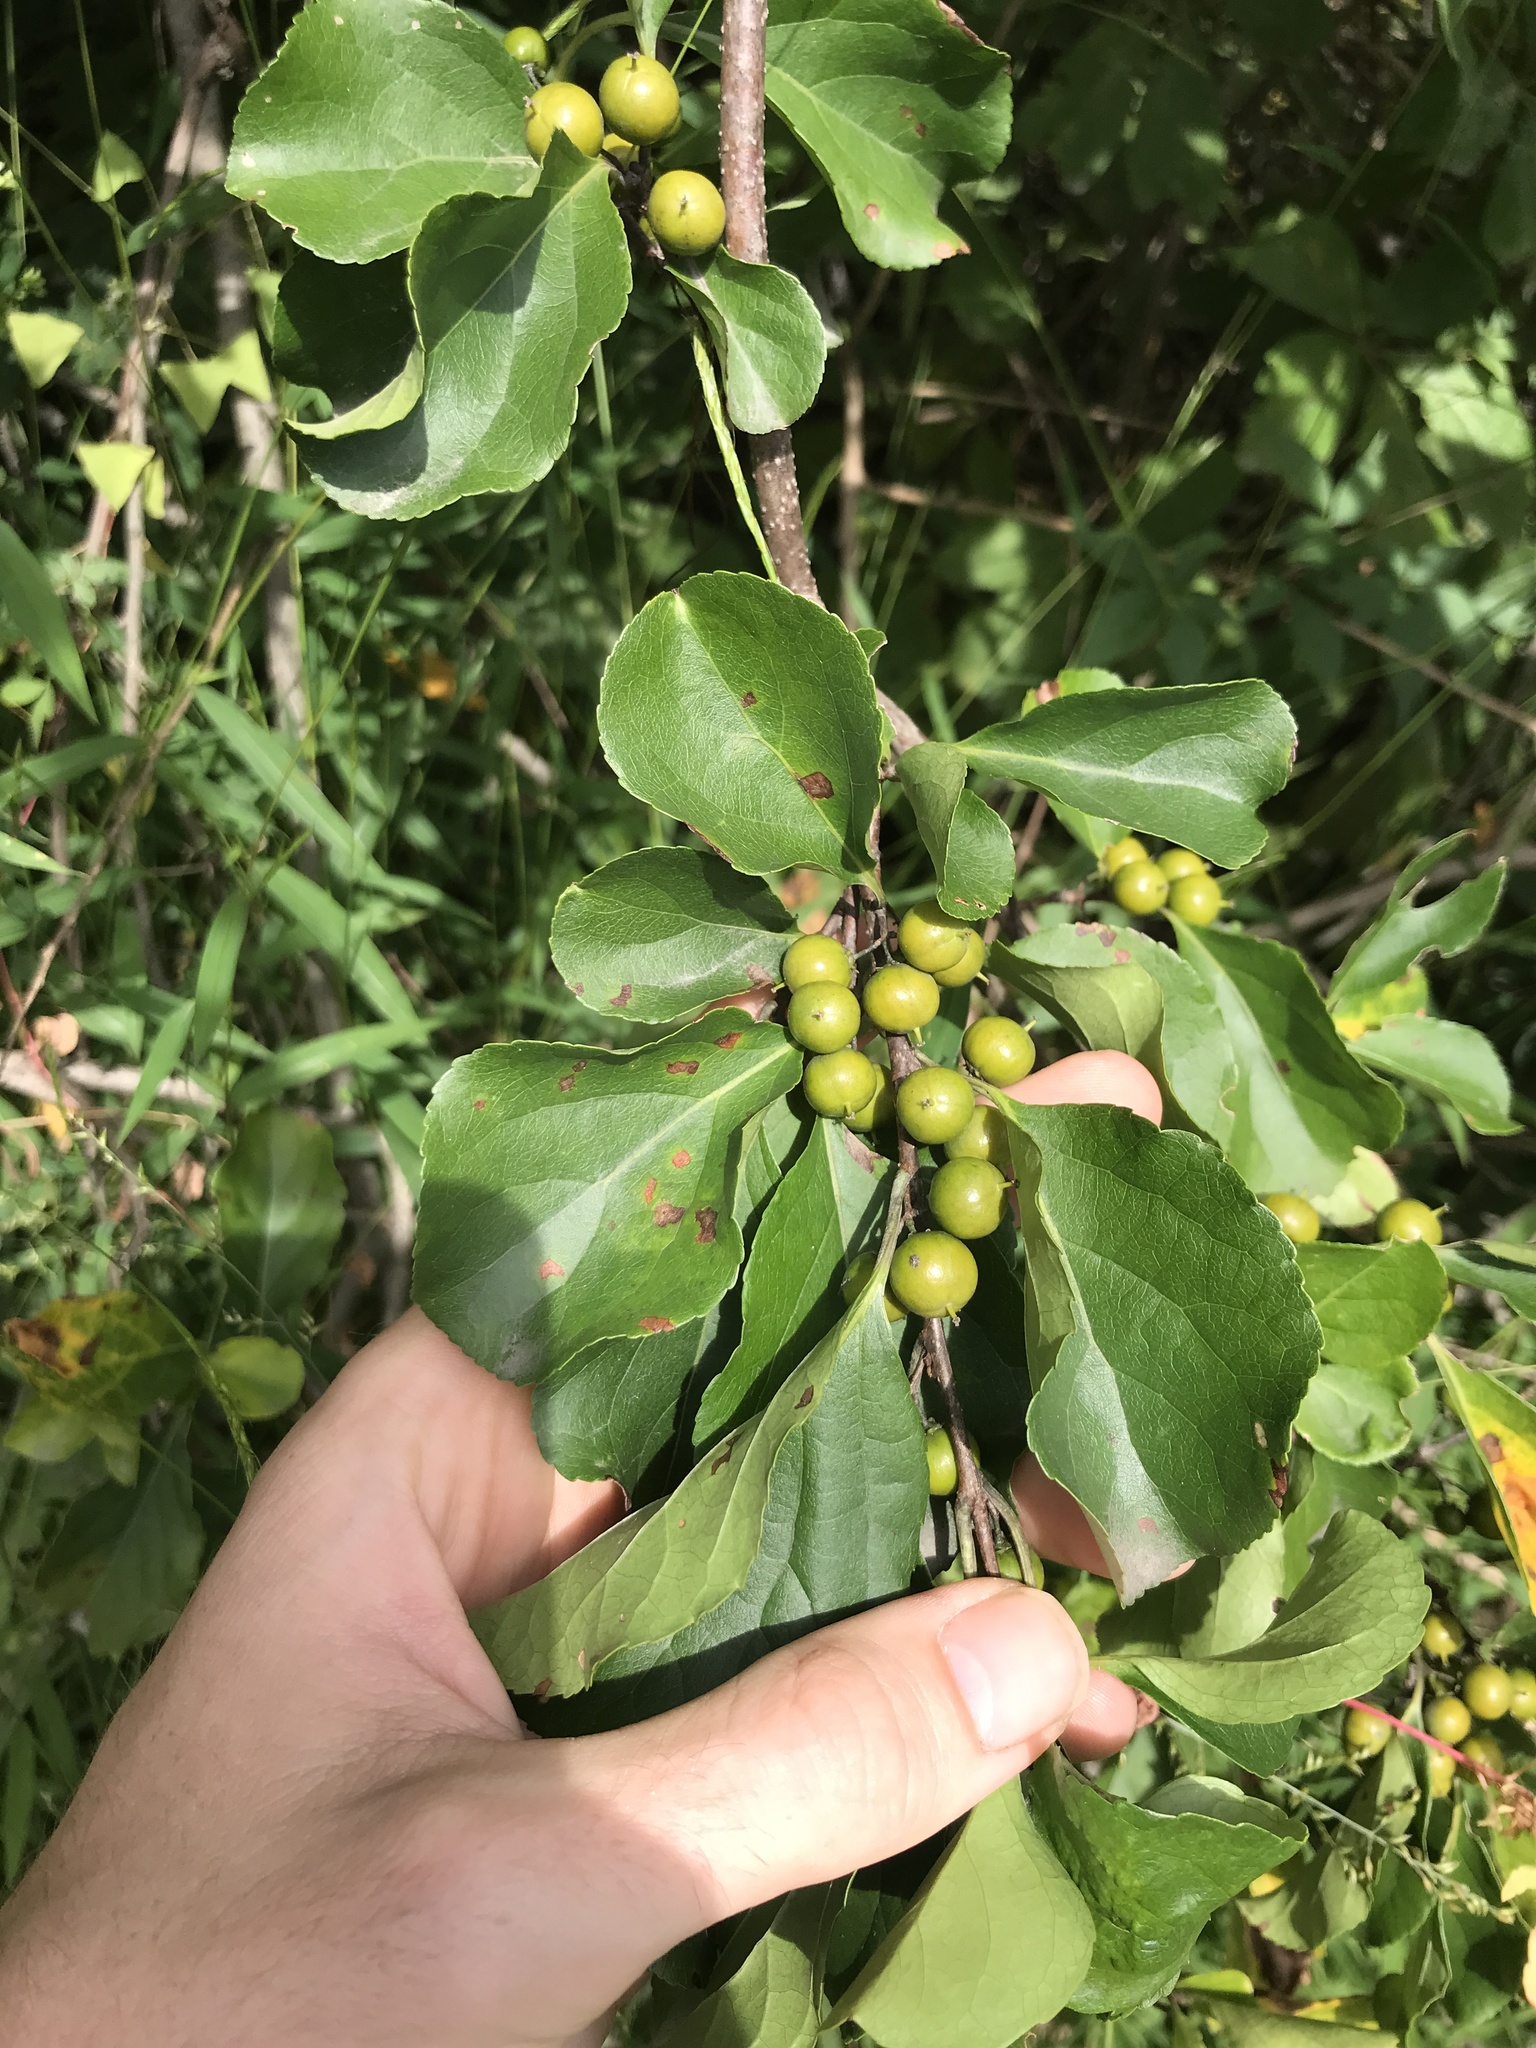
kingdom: Plantae
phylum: Tracheophyta
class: Magnoliopsida
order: Celastrales
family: Celastraceae
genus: Celastrus
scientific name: Celastrus orbiculatus
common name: Oriental bittersweet
